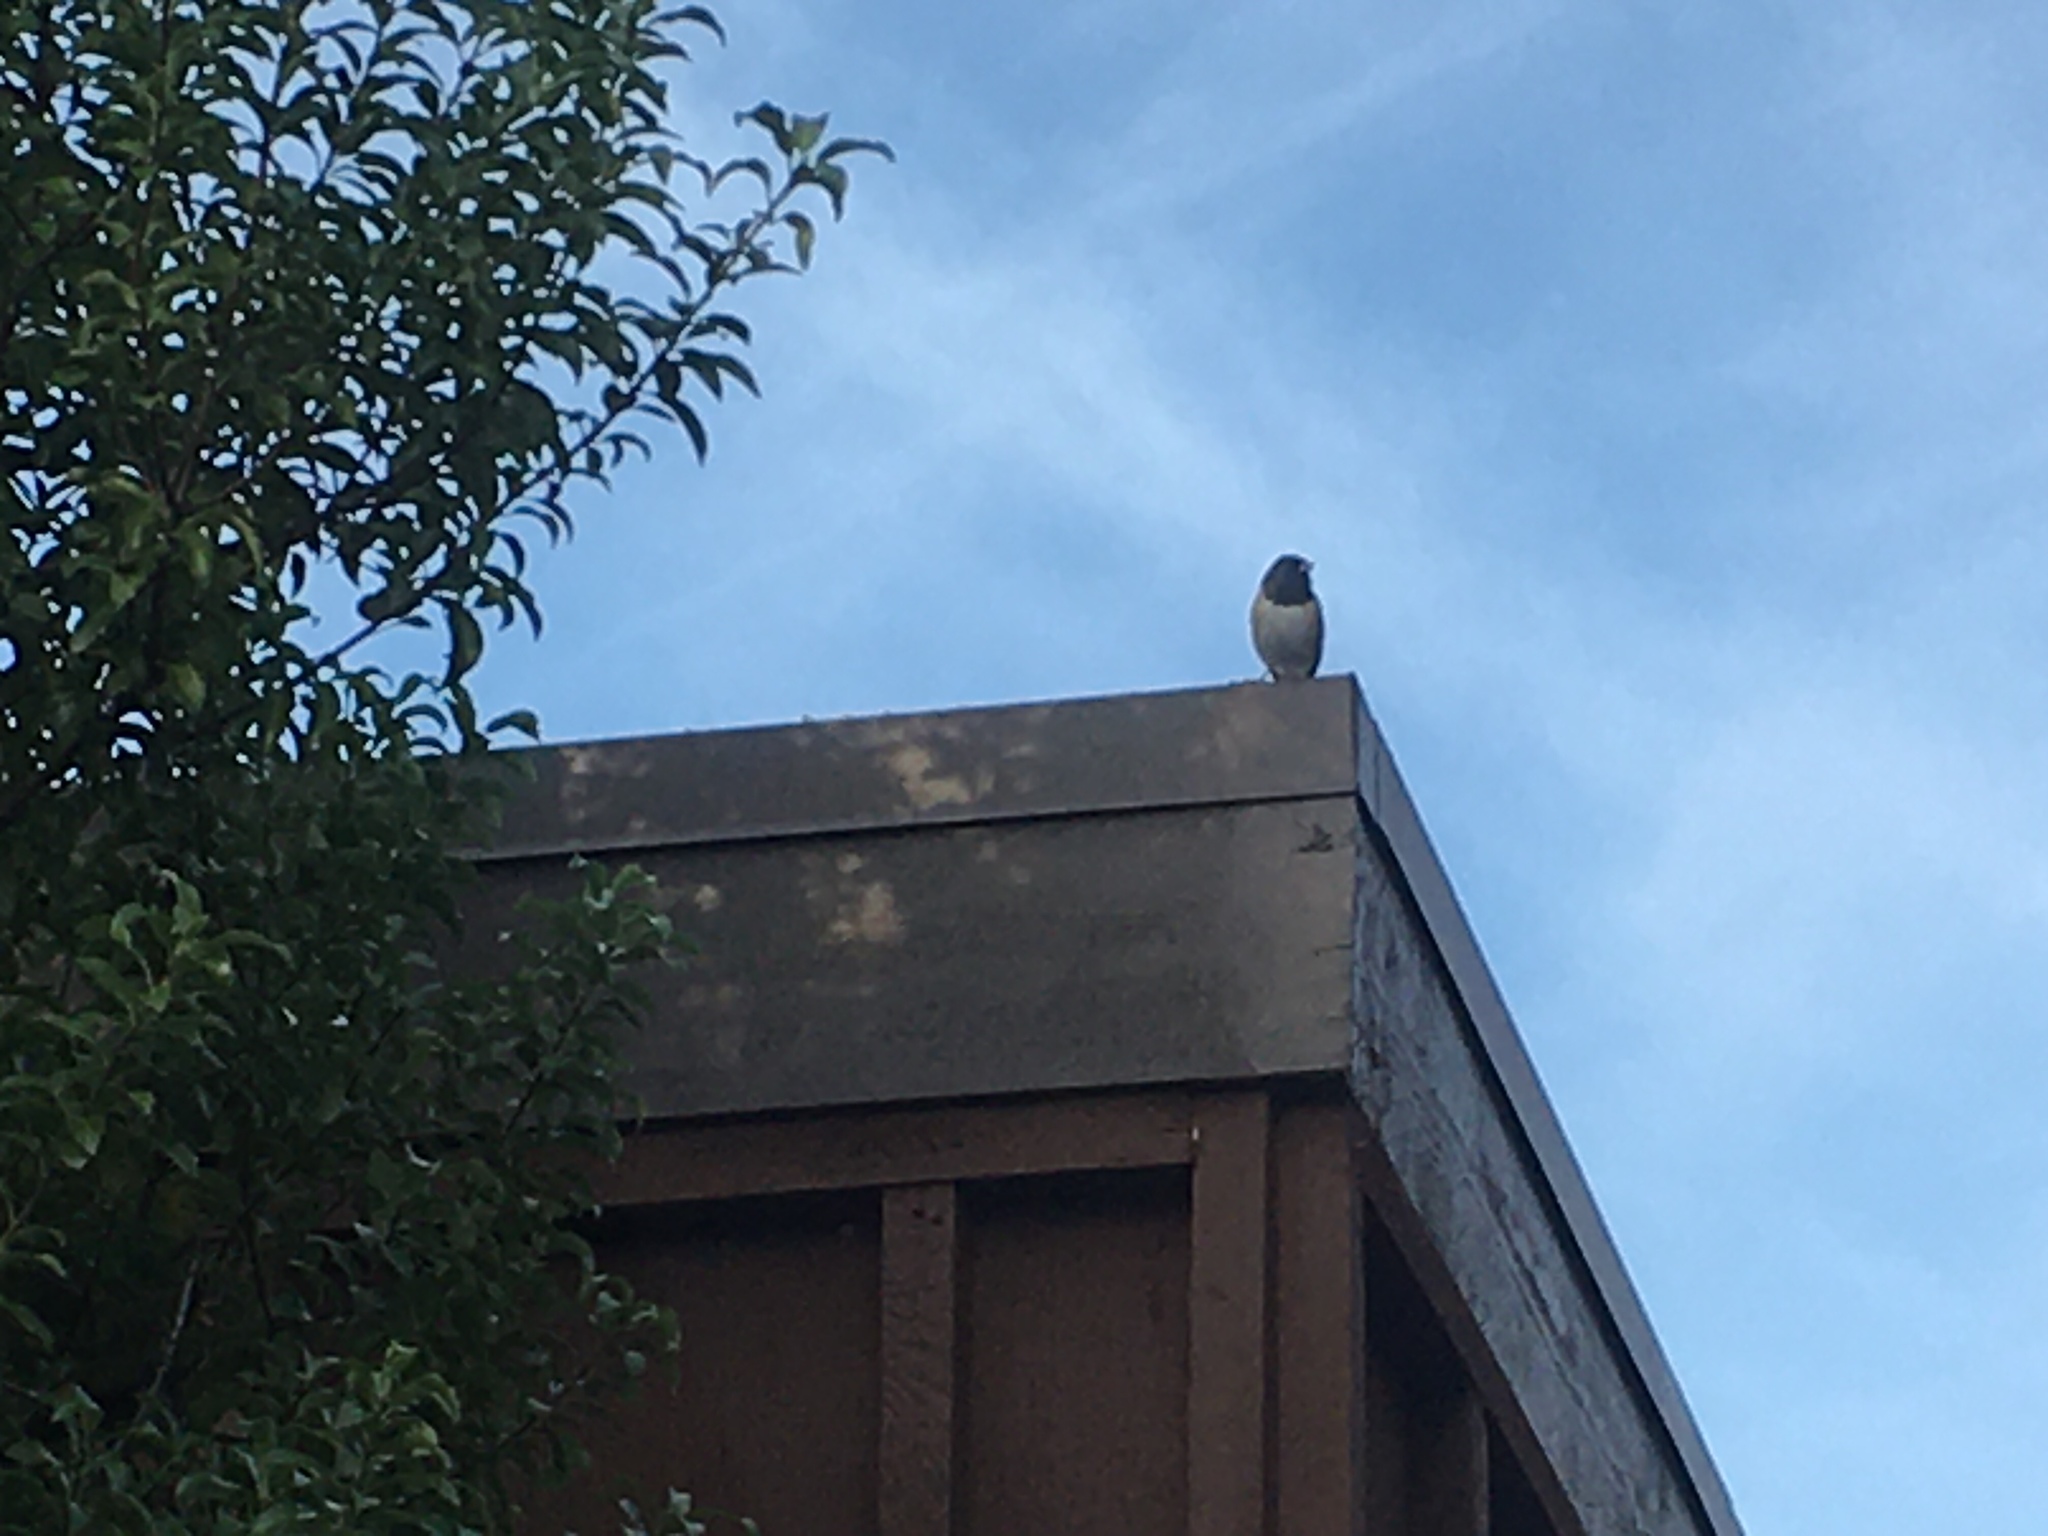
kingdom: Animalia
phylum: Chordata
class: Aves
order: Passeriformes
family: Passerellidae
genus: Junco
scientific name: Junco hyemalis
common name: Dark-eyed junco
